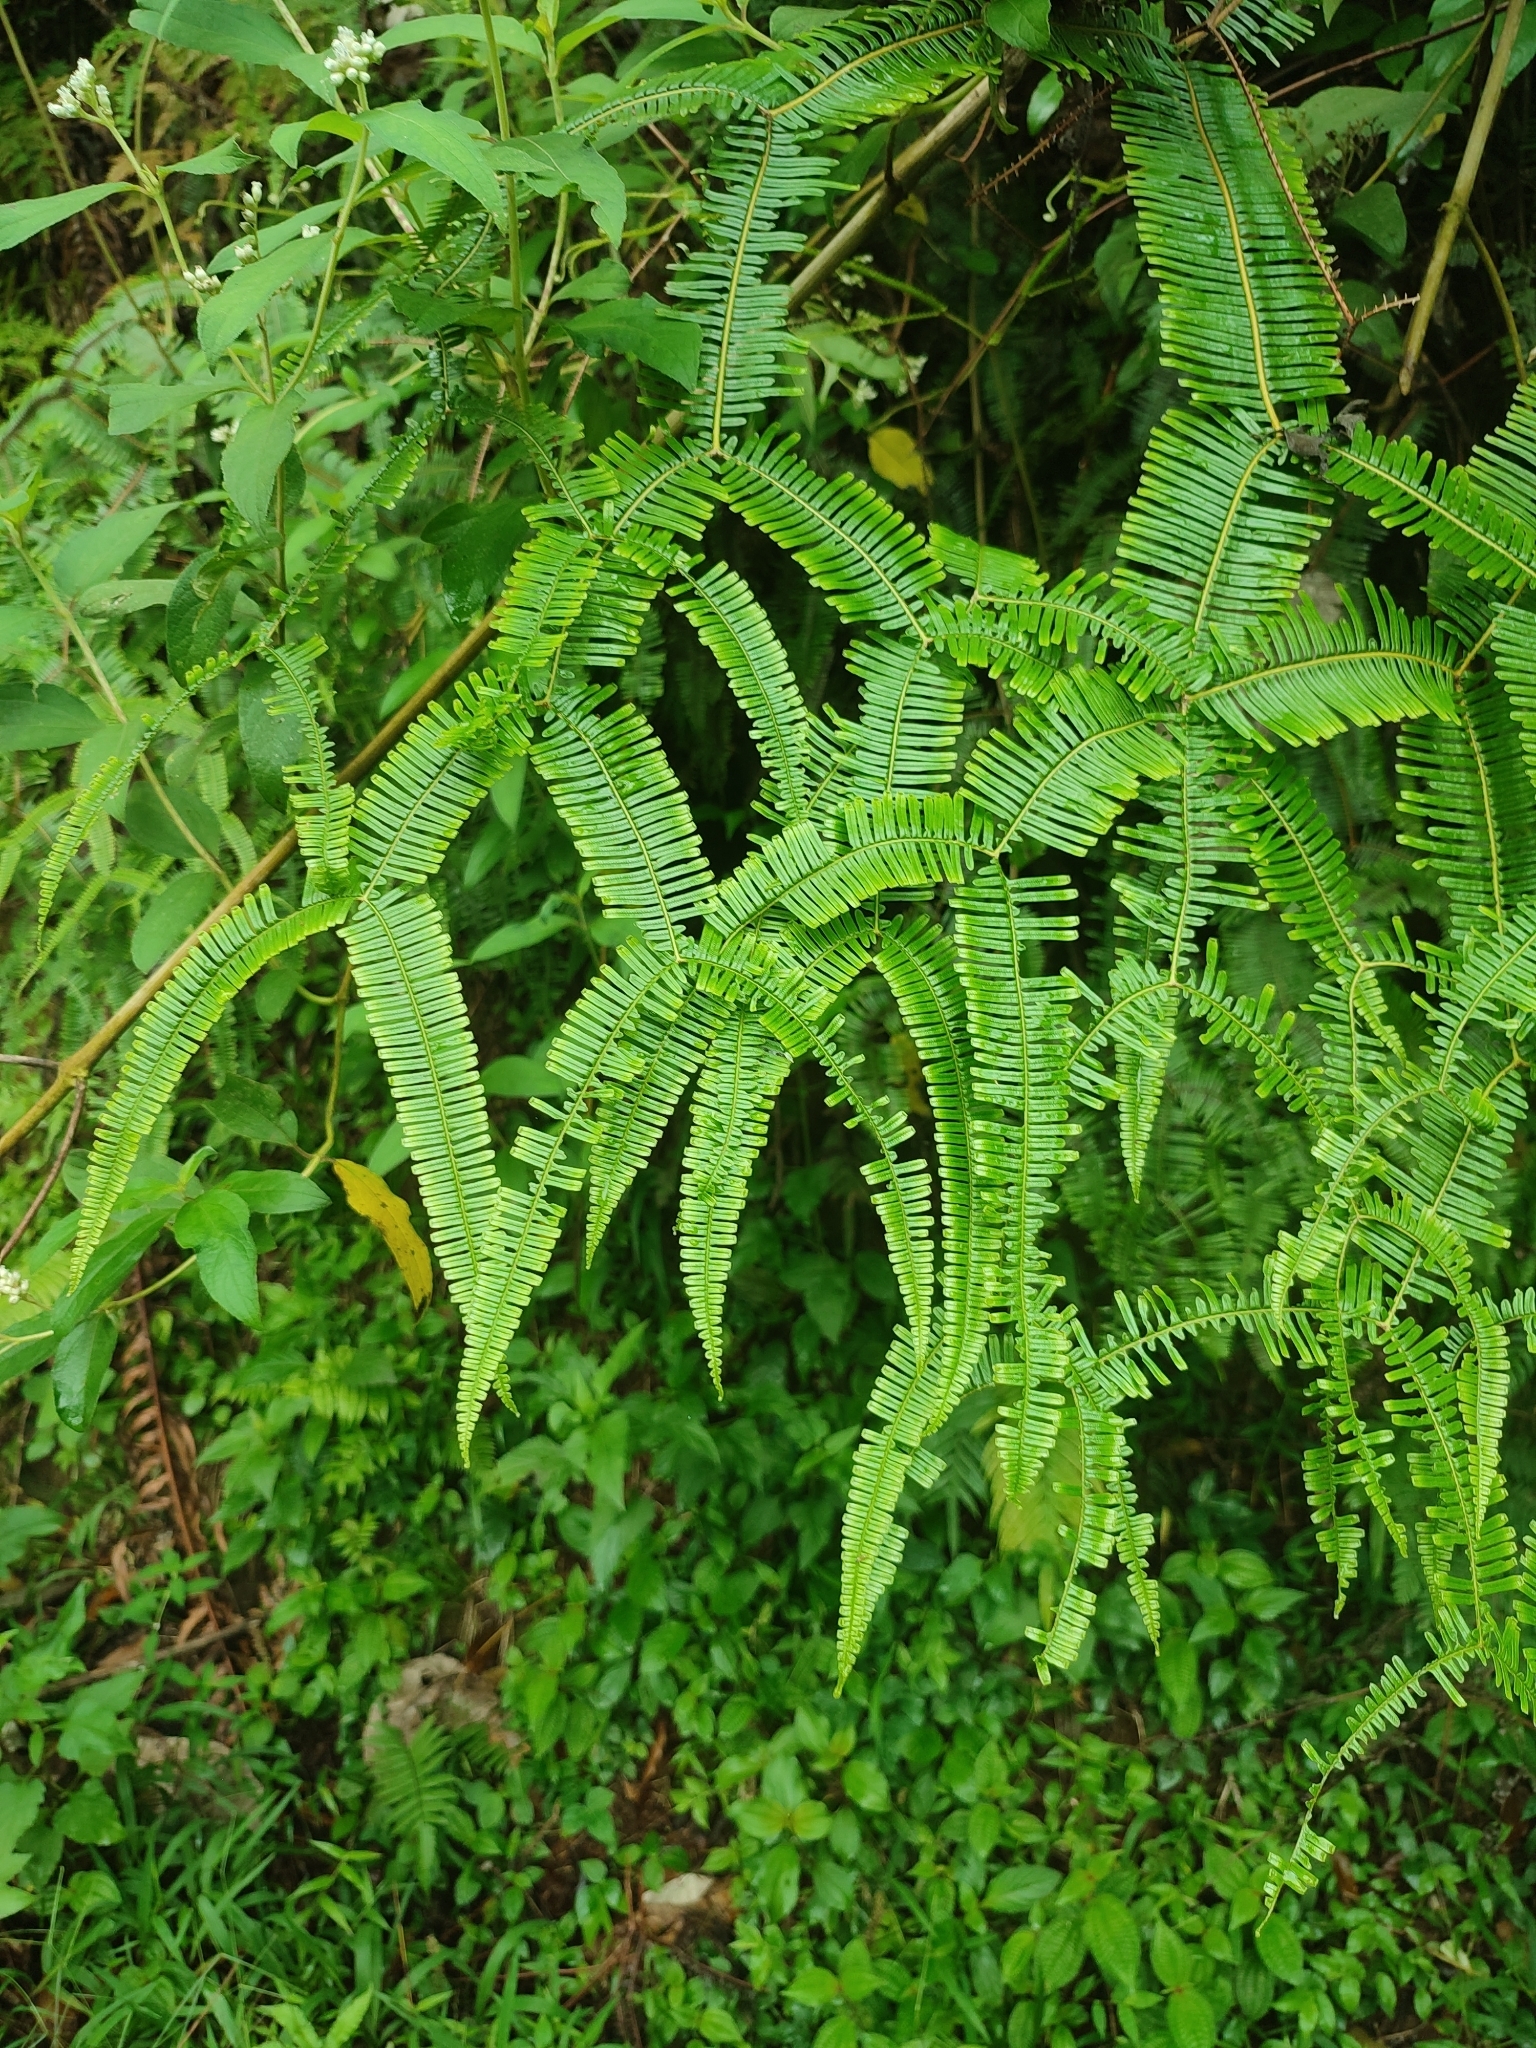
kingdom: Plantae
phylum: Tracheophyta
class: Polypodiopsida
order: Gleicheniales
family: Gleicheniaceae
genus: Sticherus
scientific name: Sticherus truncatus
